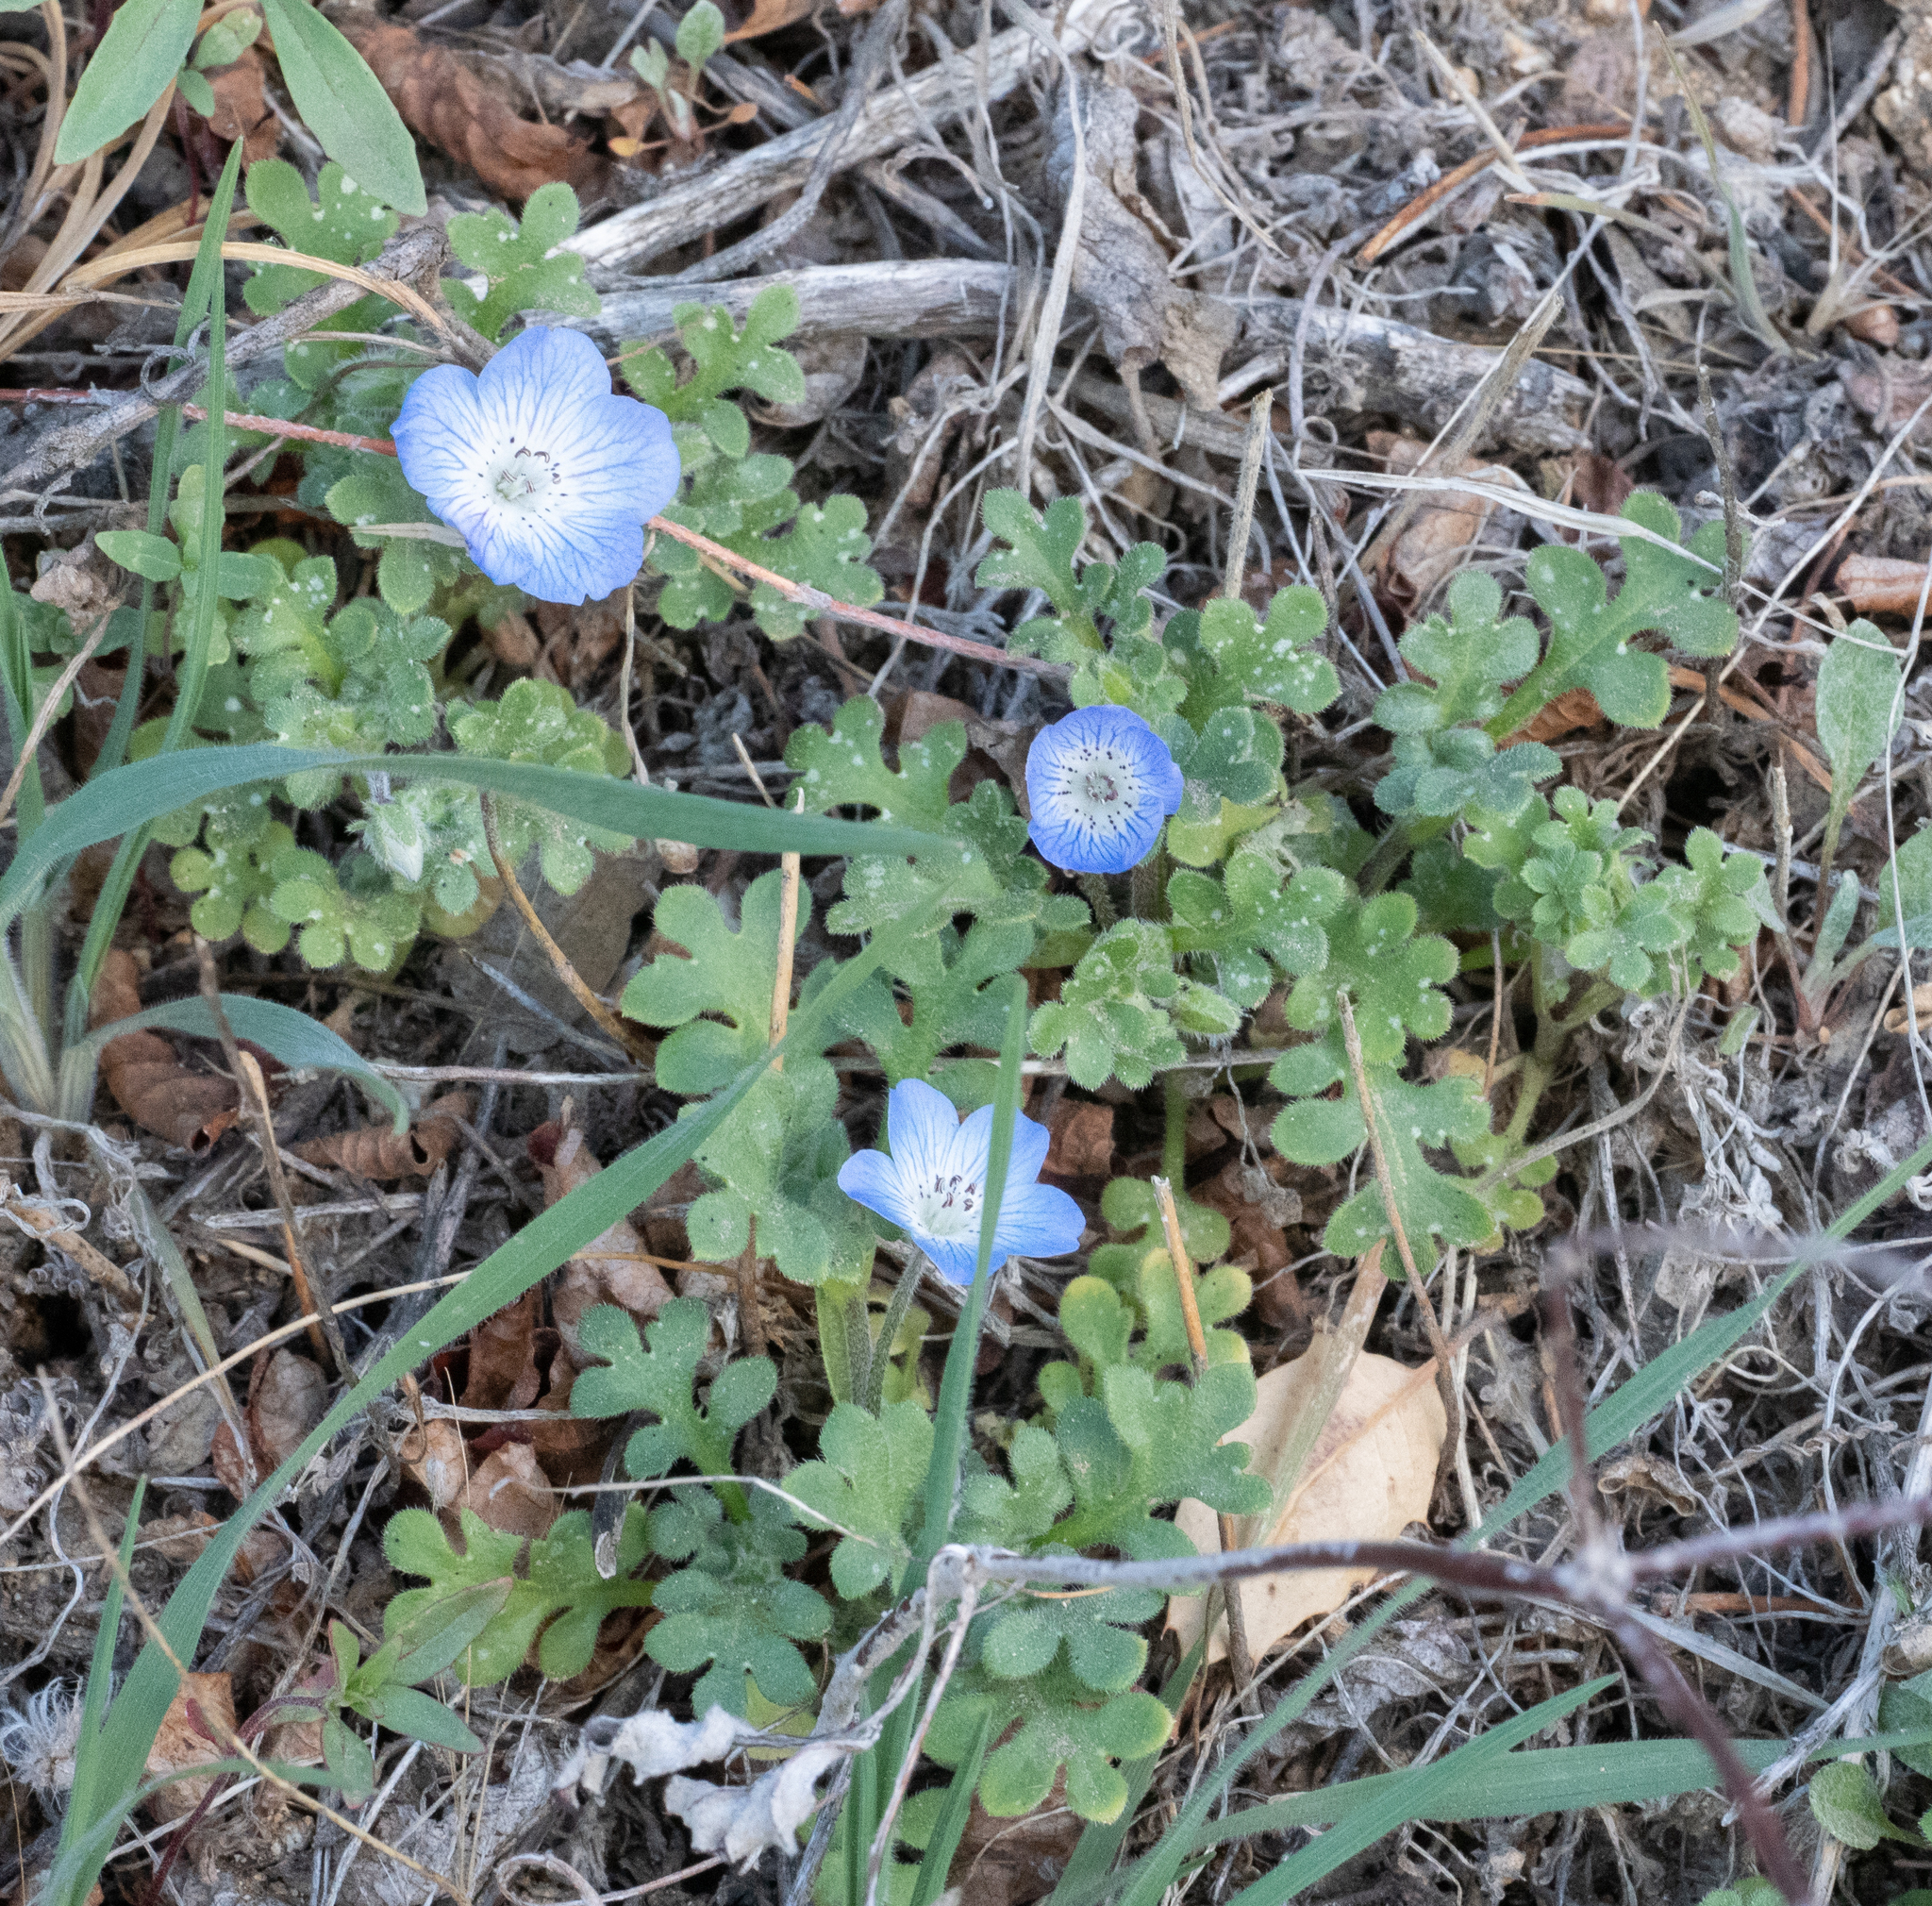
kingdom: Plantae
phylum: Tracheophyta
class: Magnoliopsida
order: Boraginales
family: Hydrophyllaceae
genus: Nemophila
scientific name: Nemophila menziesii
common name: Baby's-blue-eyes
